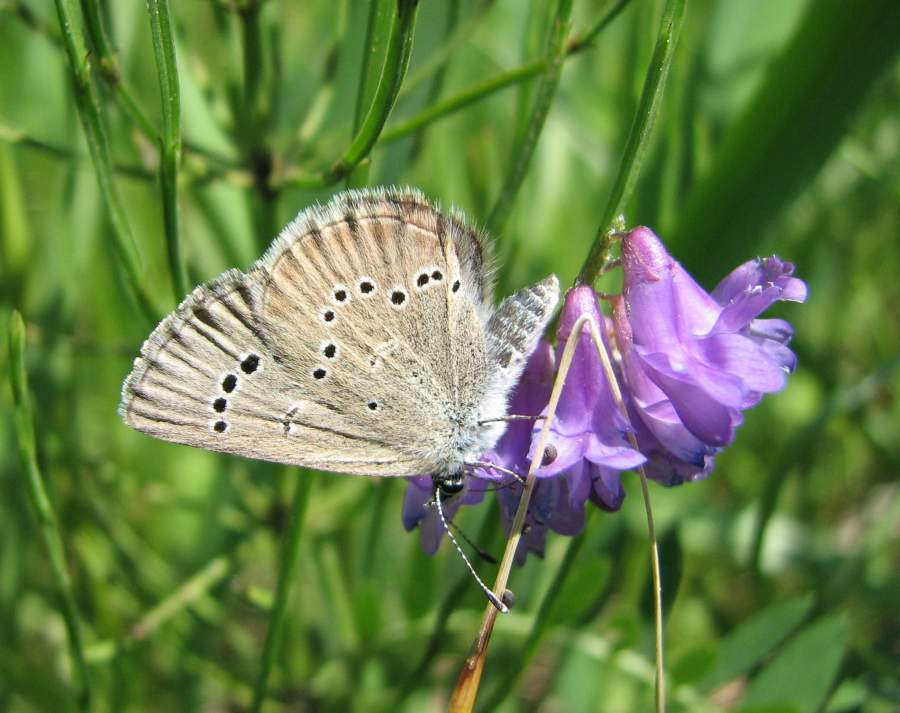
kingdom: Animalia
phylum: Arthropoda
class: Insecta
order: Lepidoptera
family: Lycaenidae
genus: Glaucopsyche
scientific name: Glaucopsyche lygdamus
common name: Silvery blue
